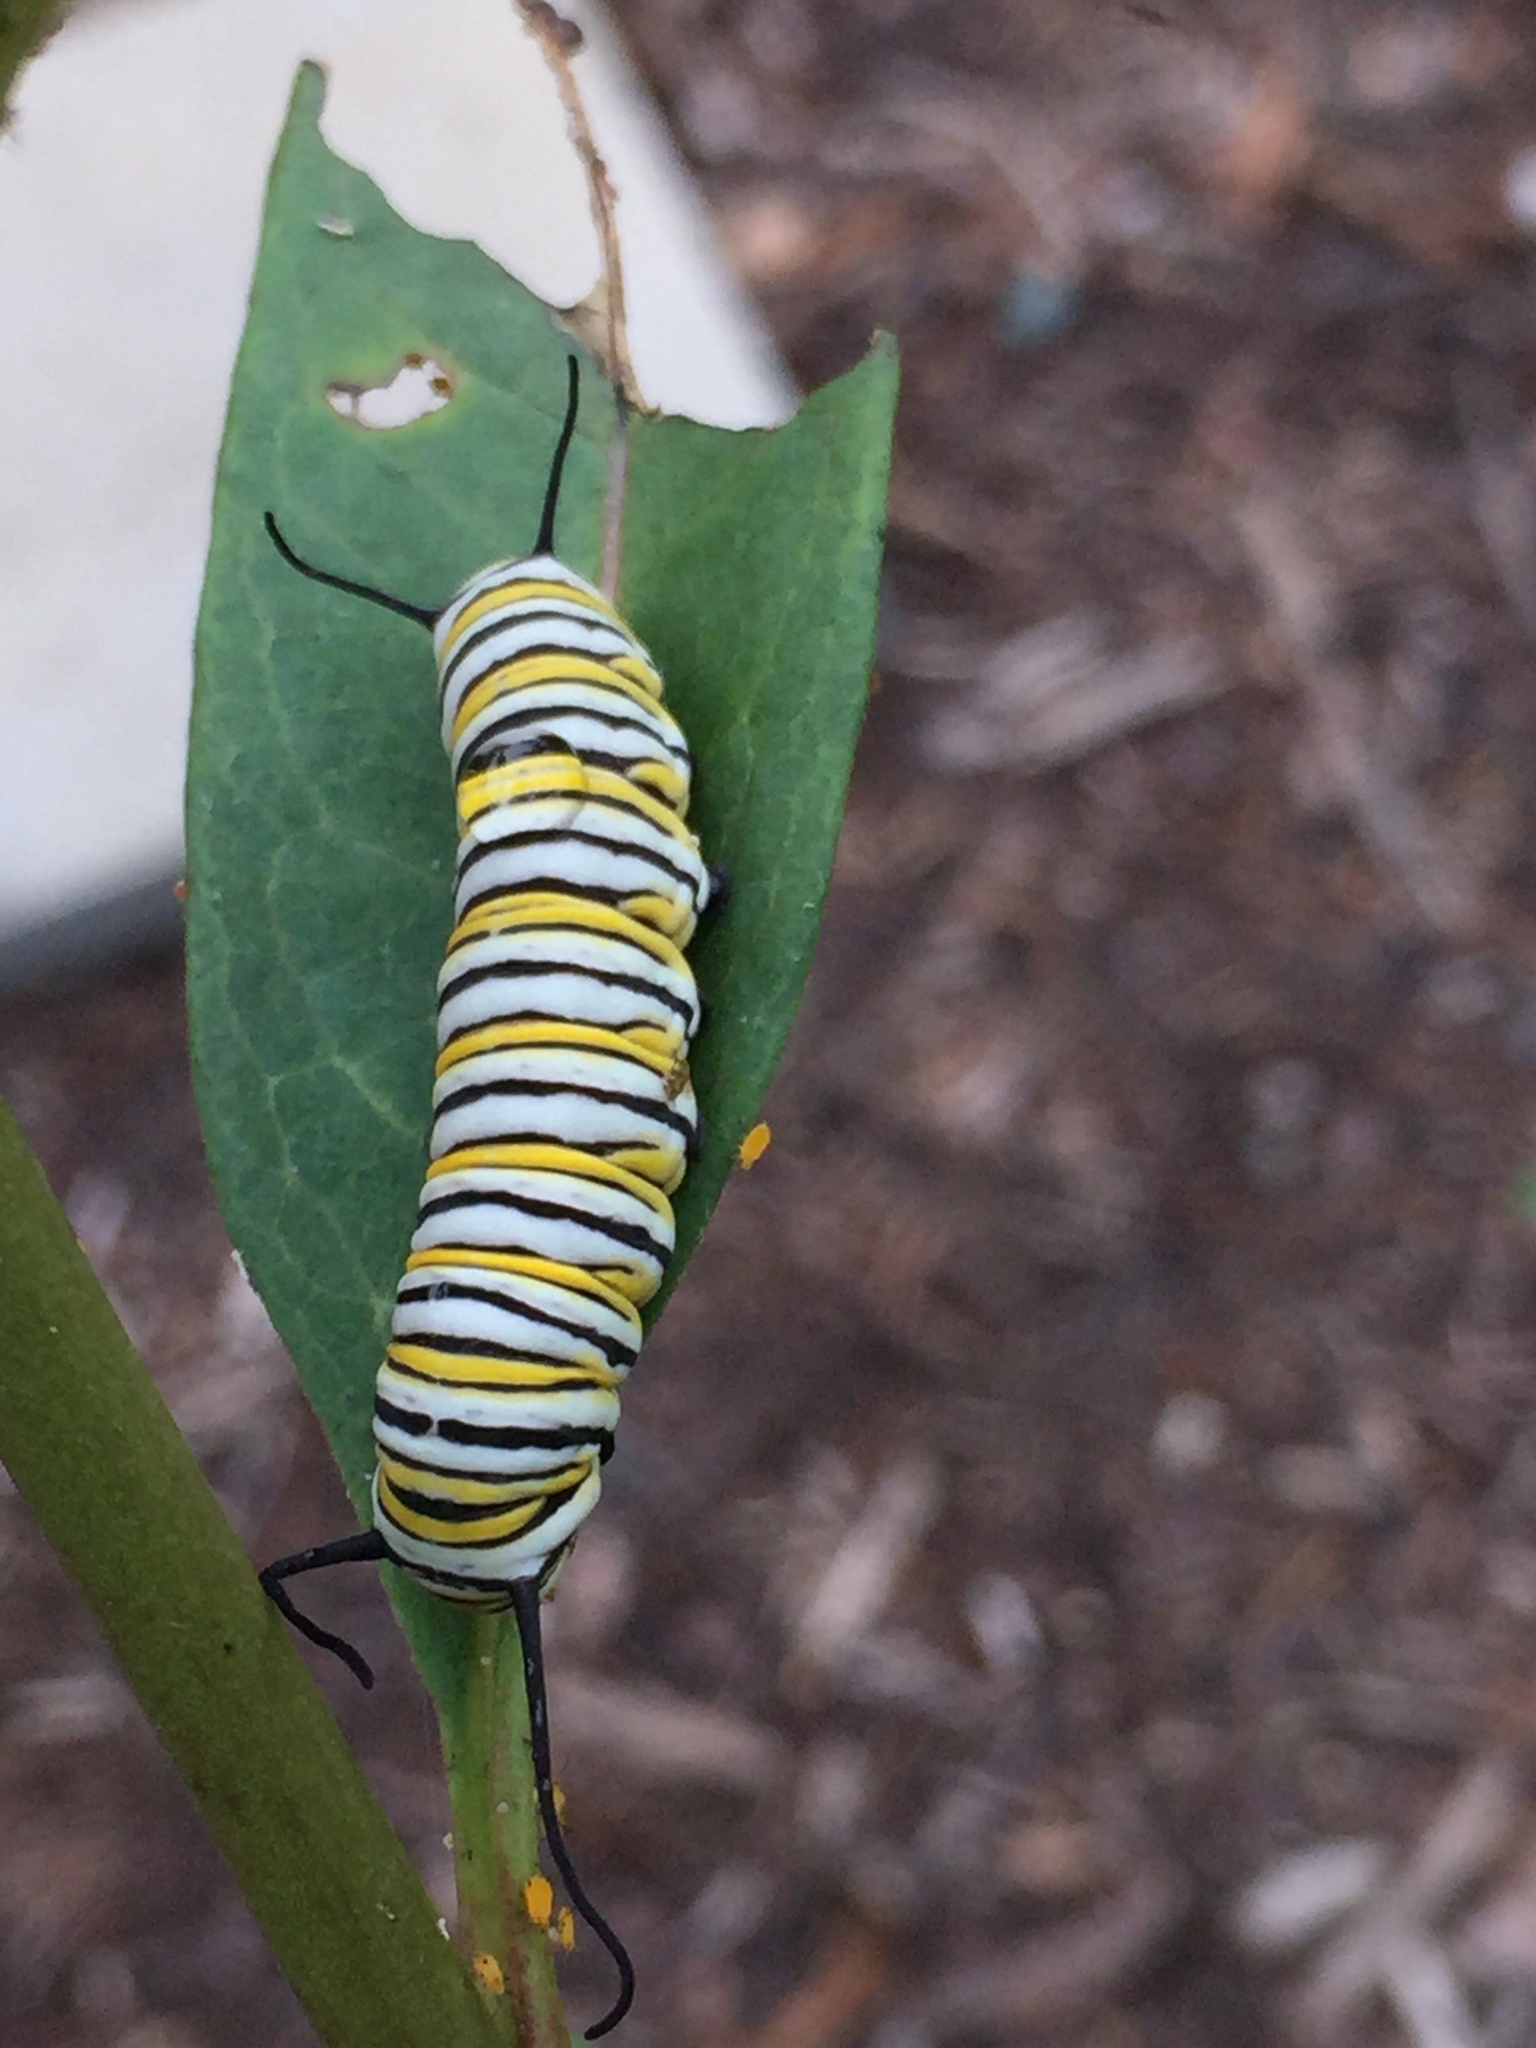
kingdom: Animalia
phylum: Arthropoda
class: Insecta
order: Lepidoptera
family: Nymphalidae
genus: Danaus
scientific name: Danaus plexippus
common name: Monarch
